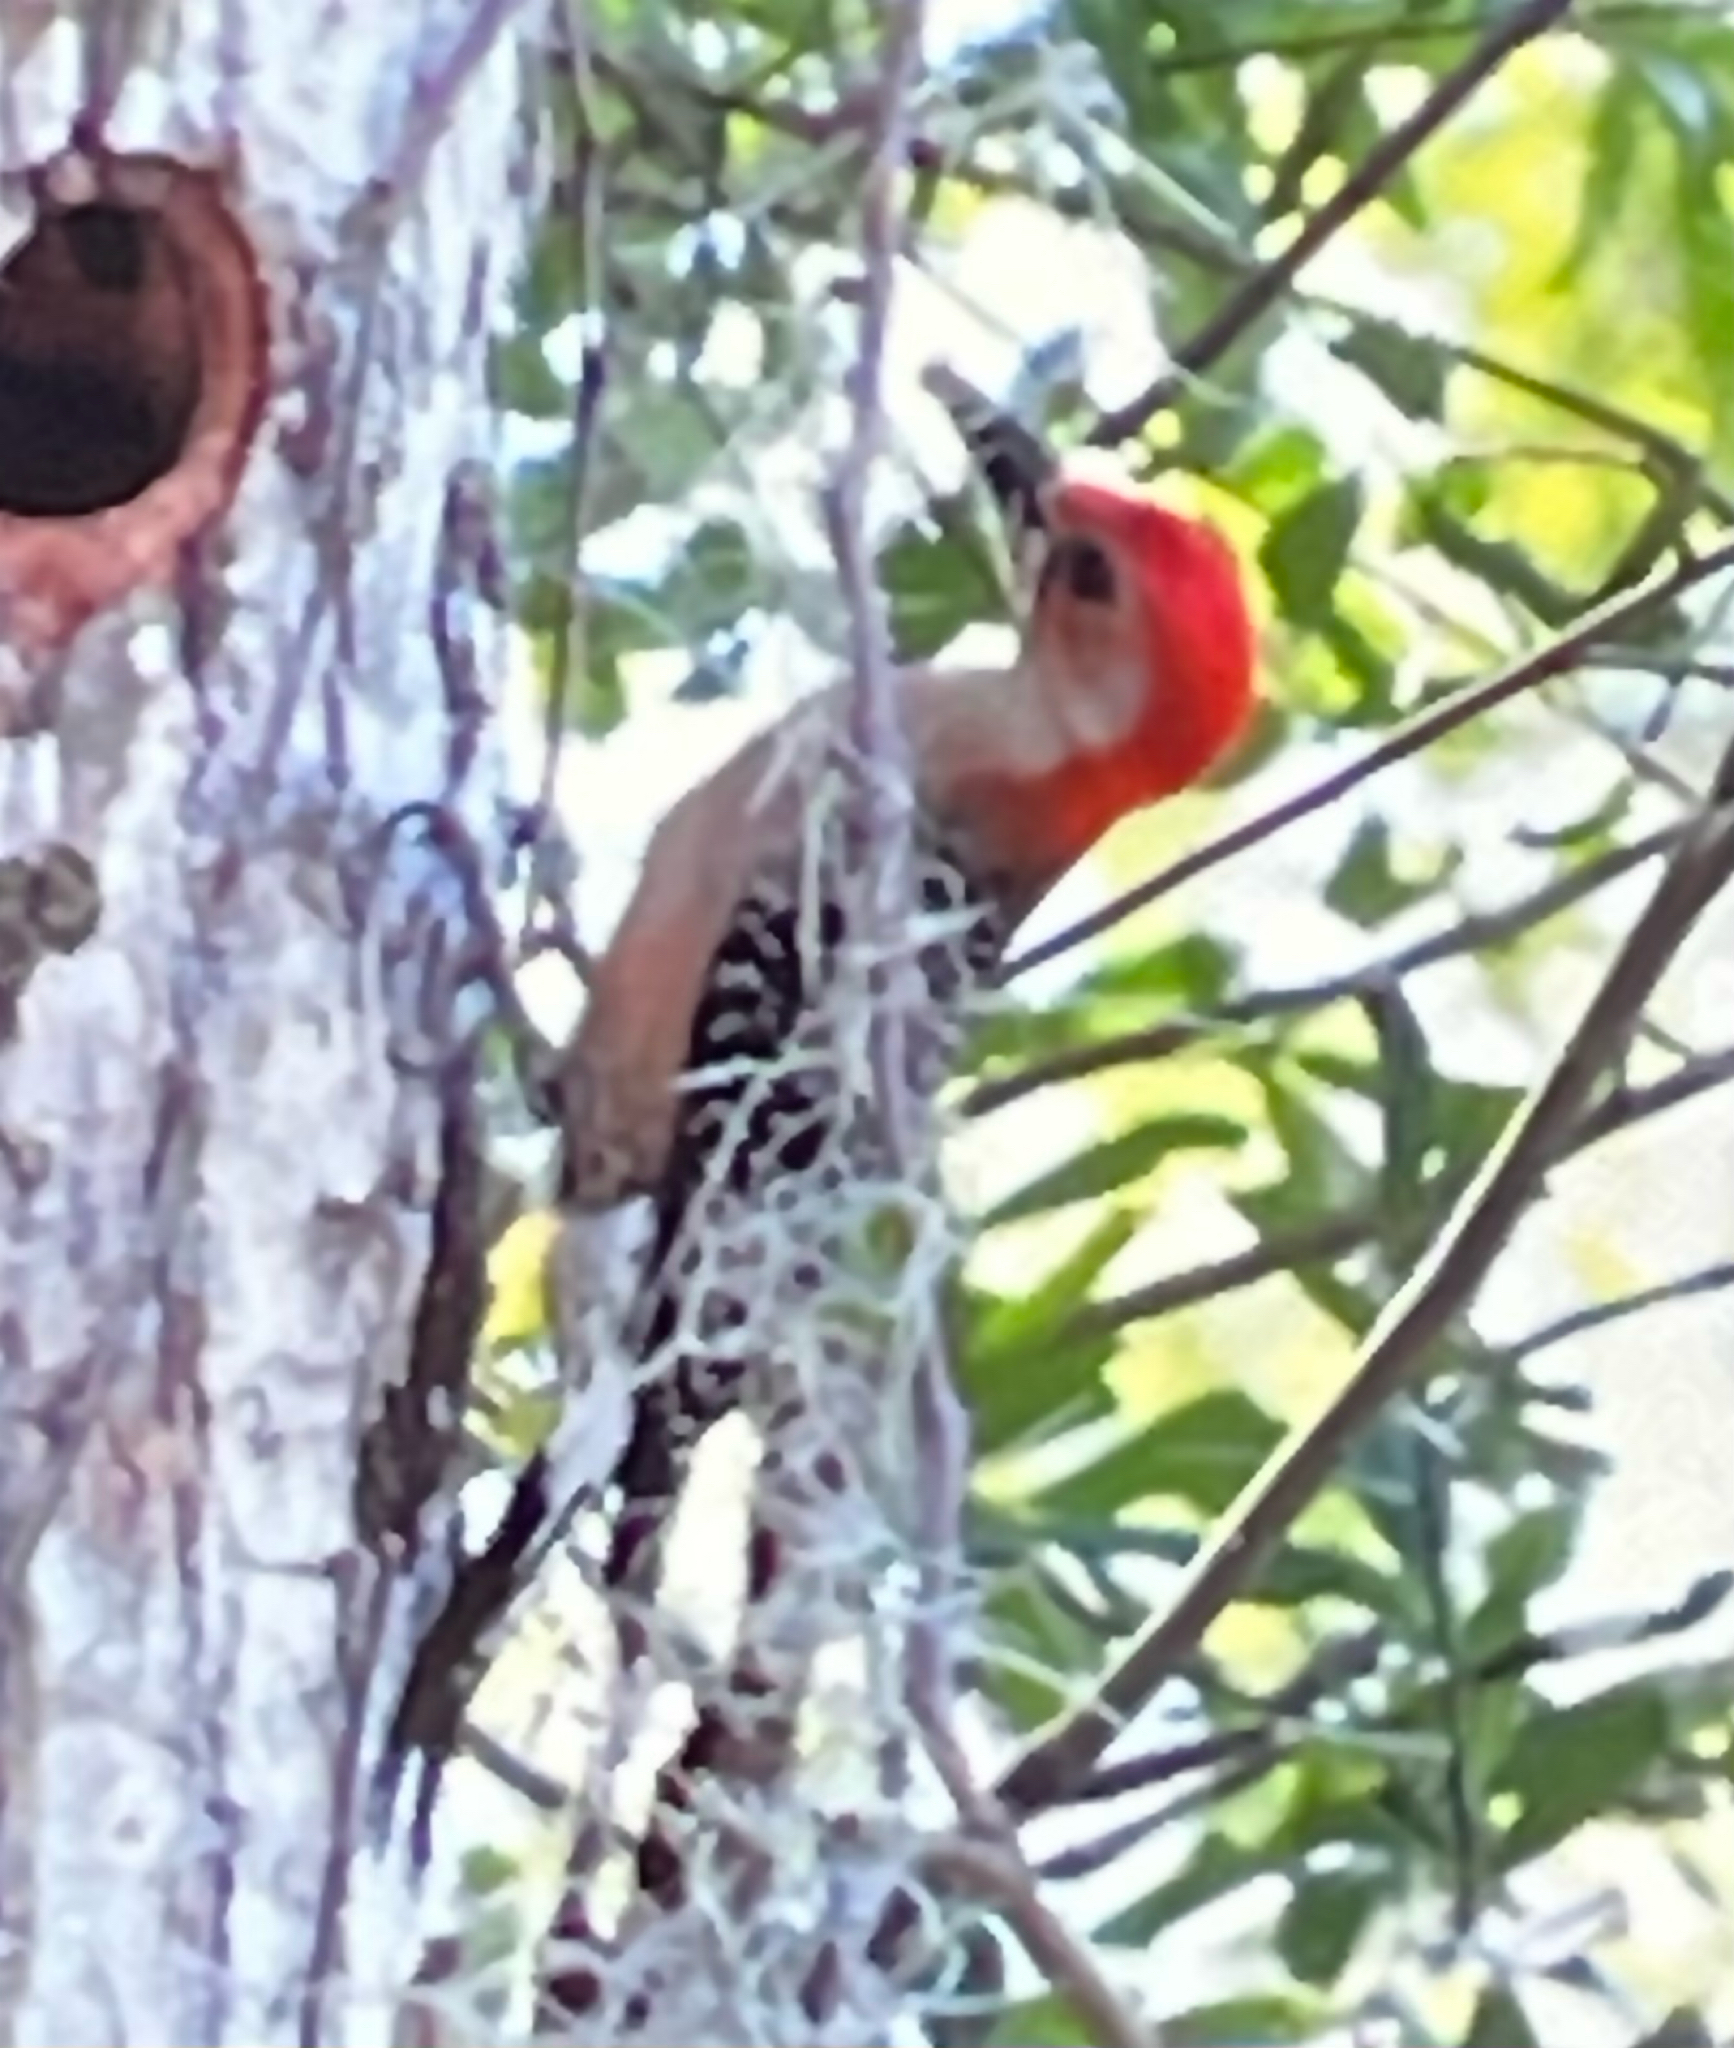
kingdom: Animalia
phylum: Chordata
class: Aves
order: Piciformes
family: Picidae
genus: Melanerpes
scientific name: Melanerpes carolinus
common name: Red-bellied woodpecker
